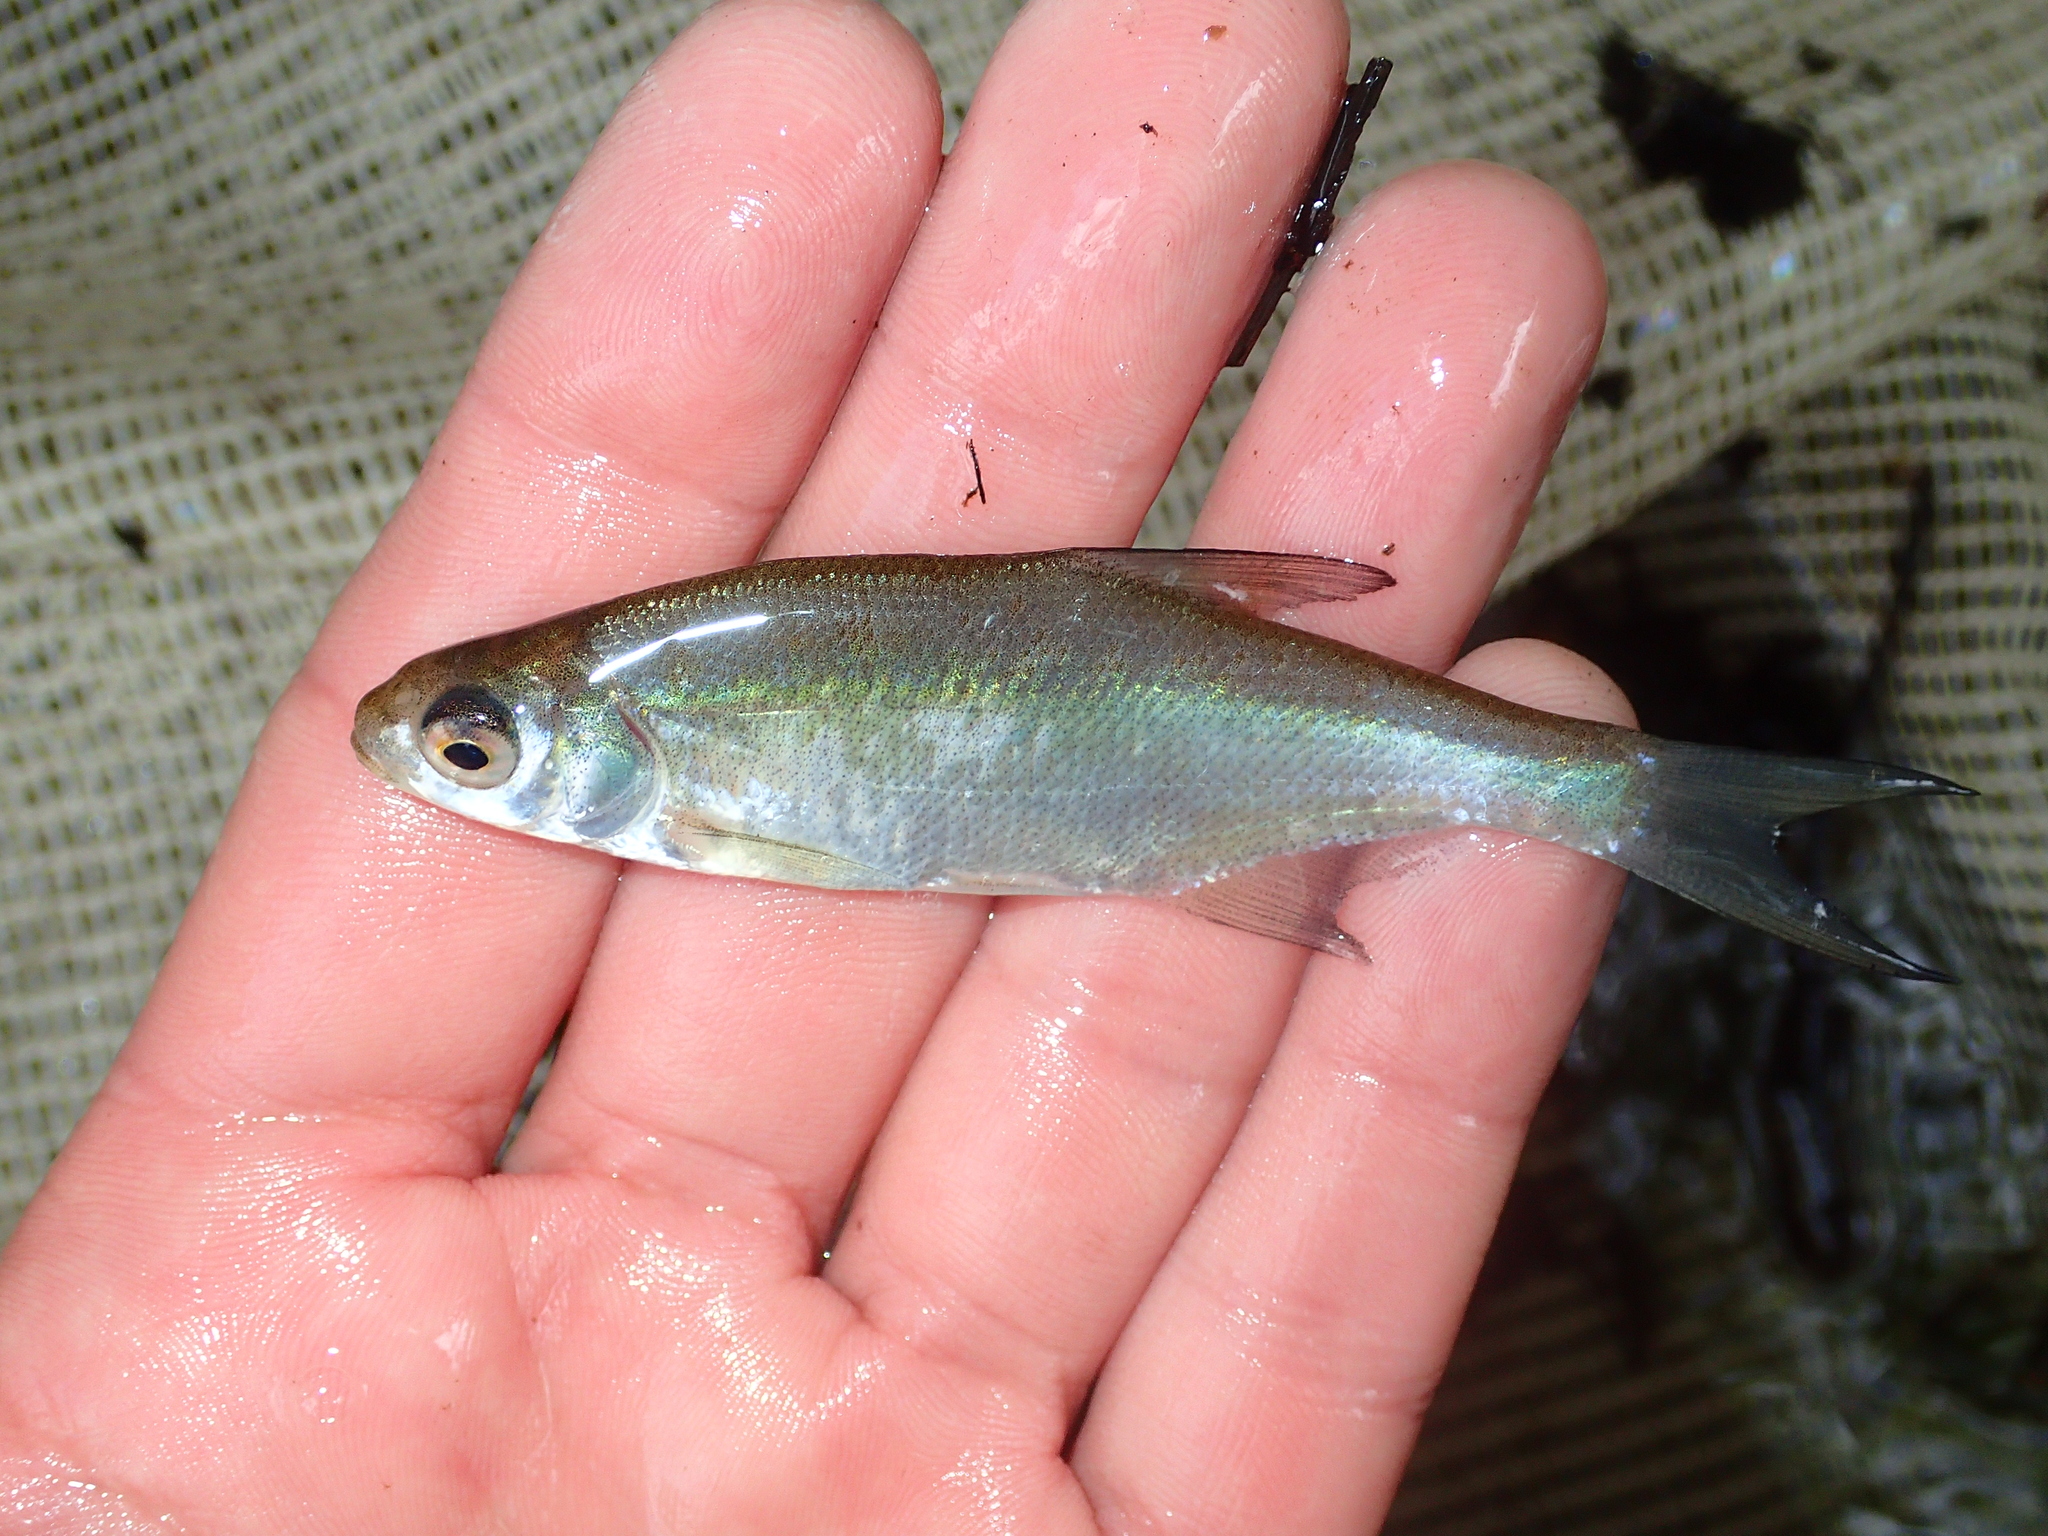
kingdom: Animalia
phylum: Chordata
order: Cypriniformes
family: Cyprinidae
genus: Abramis
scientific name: Abramis brama
